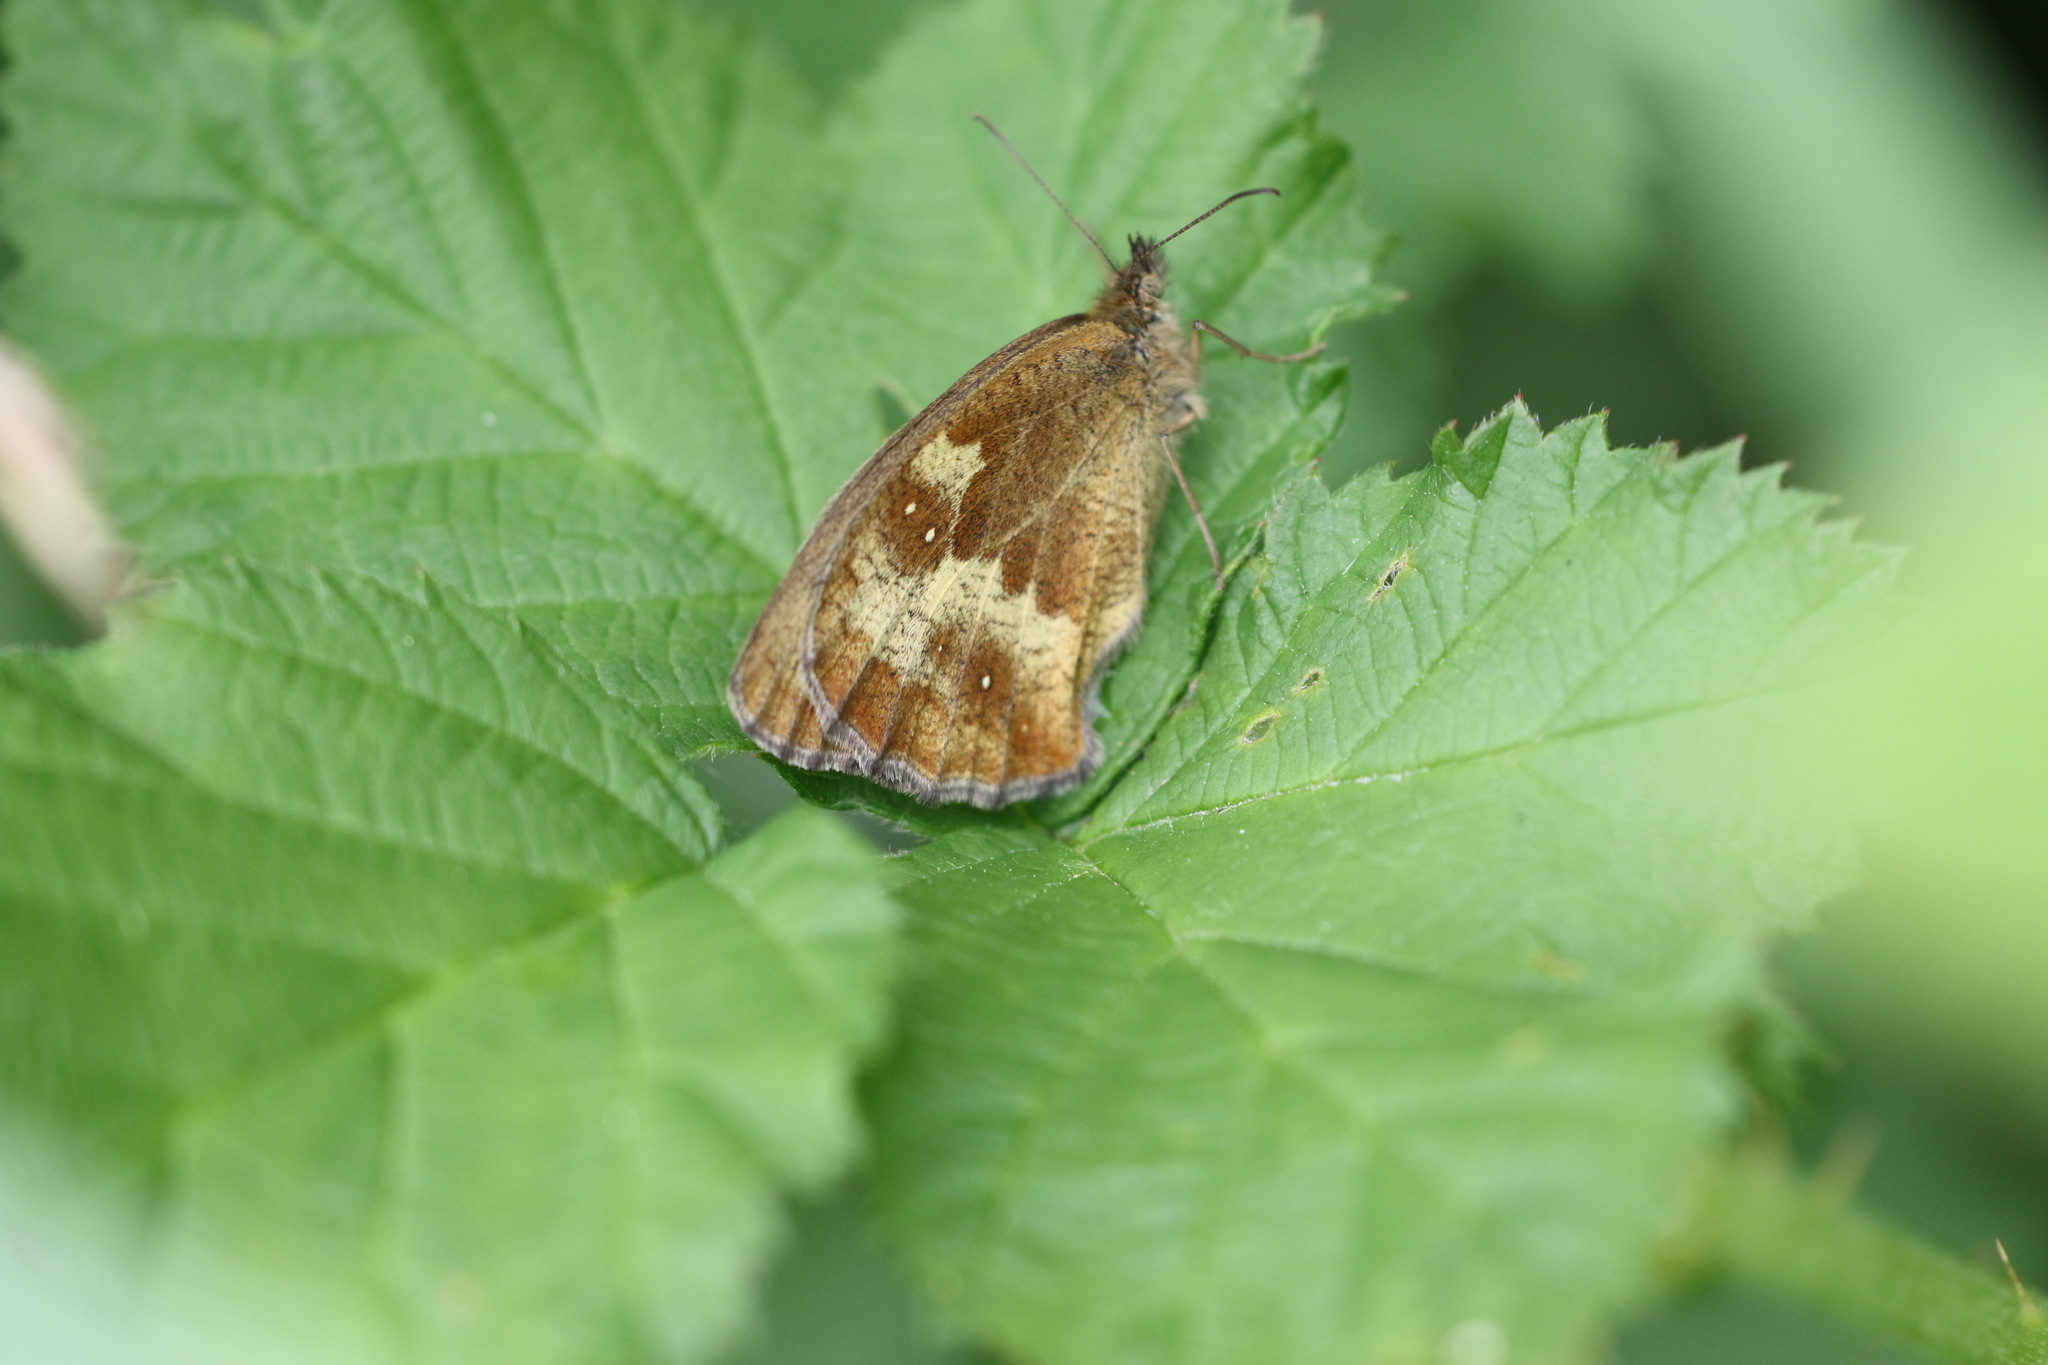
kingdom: Animalia
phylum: Arthropoda
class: Insecta
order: Lepidoptera
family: Nymphalidae
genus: Pyronia
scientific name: Pyronia tithonus
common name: Gatekeeper
